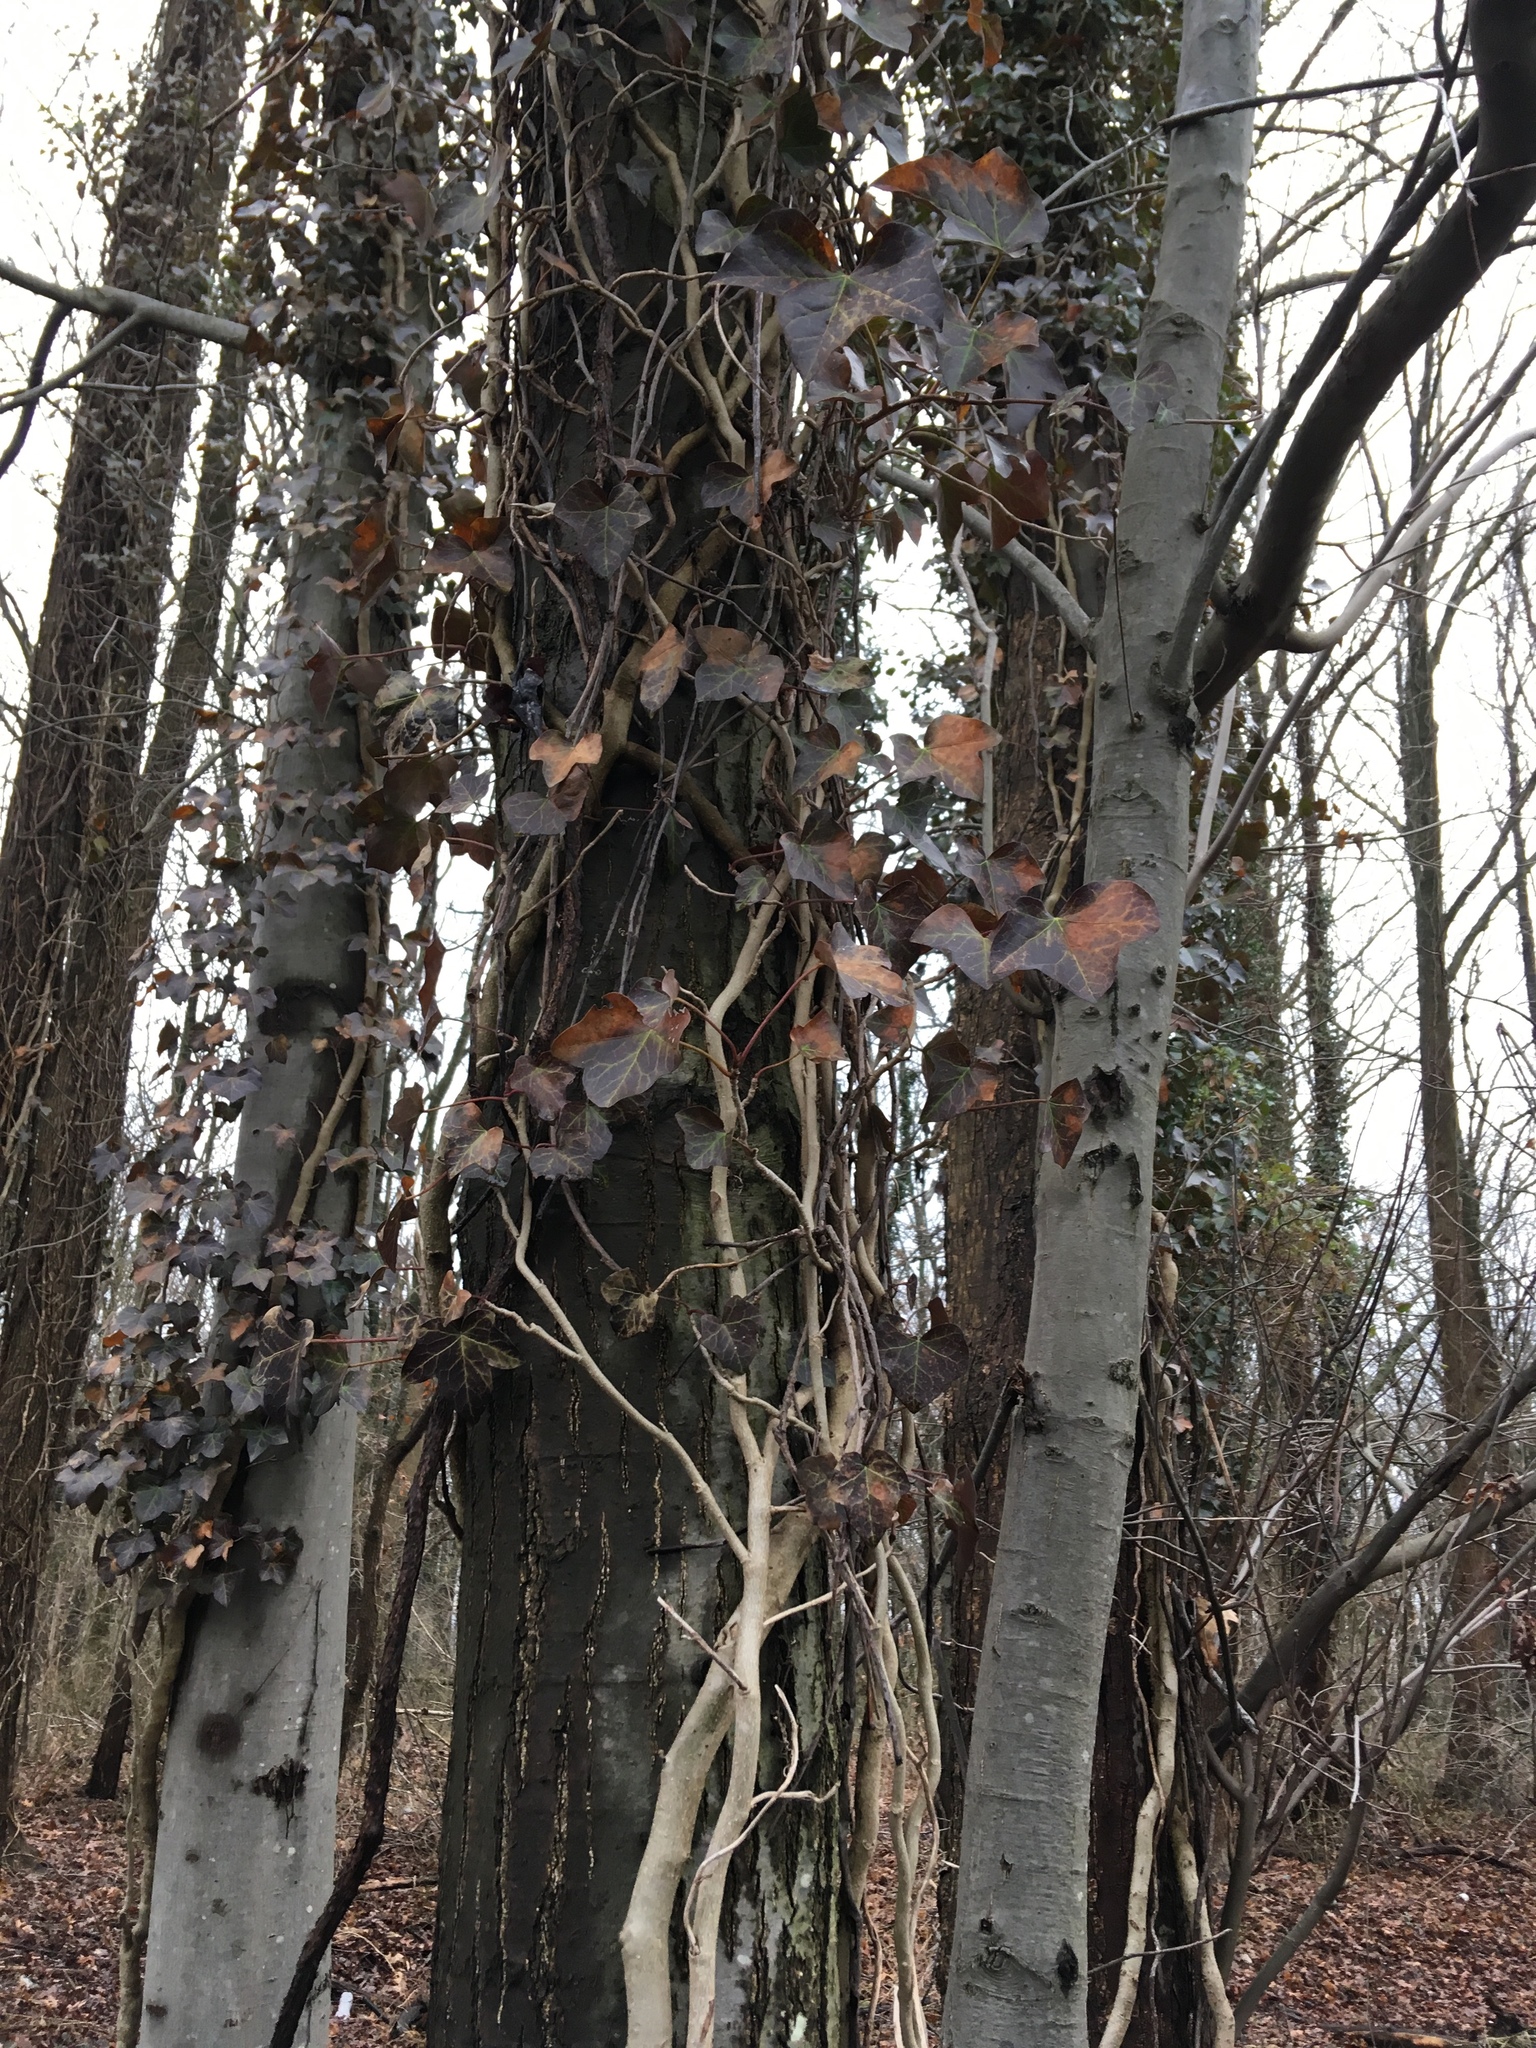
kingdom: Plantae
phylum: Tracheophyta
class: Magnoliopsida
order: Apiales
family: Araliaceae
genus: Hedera
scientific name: Hedera helix
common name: Ivy
